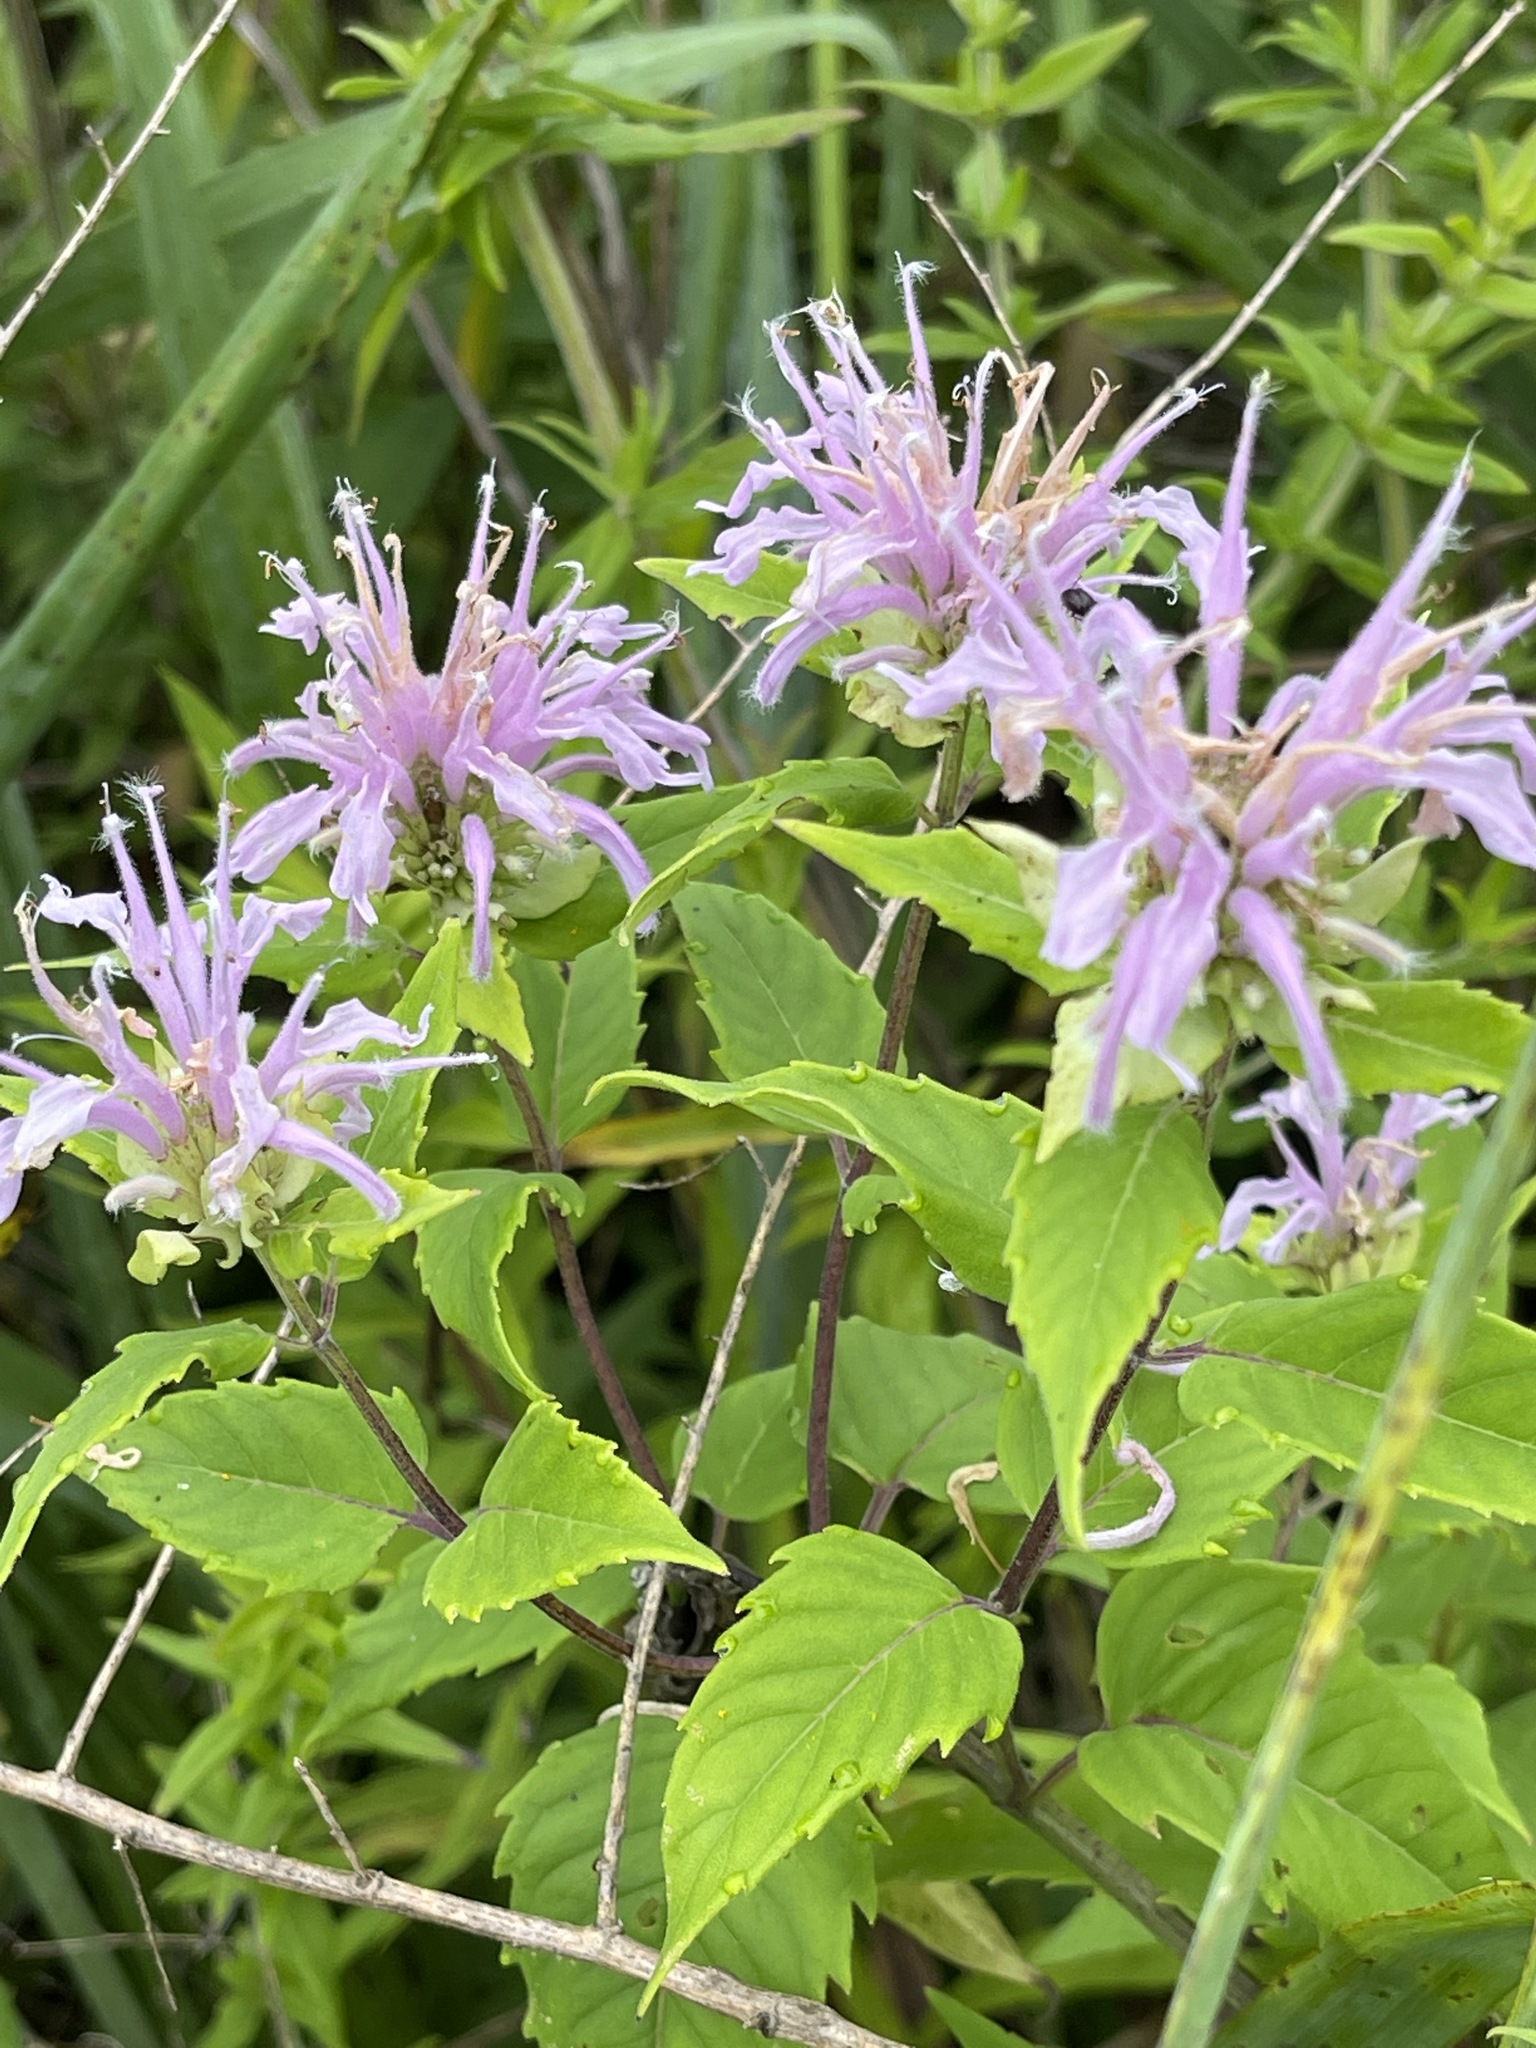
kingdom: Plantae
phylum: Tracheophyta
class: Magnoliopsida
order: Lamiales
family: Lamiaceae
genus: Monarda
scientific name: Monarda fistulosa
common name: Purple beebalm
